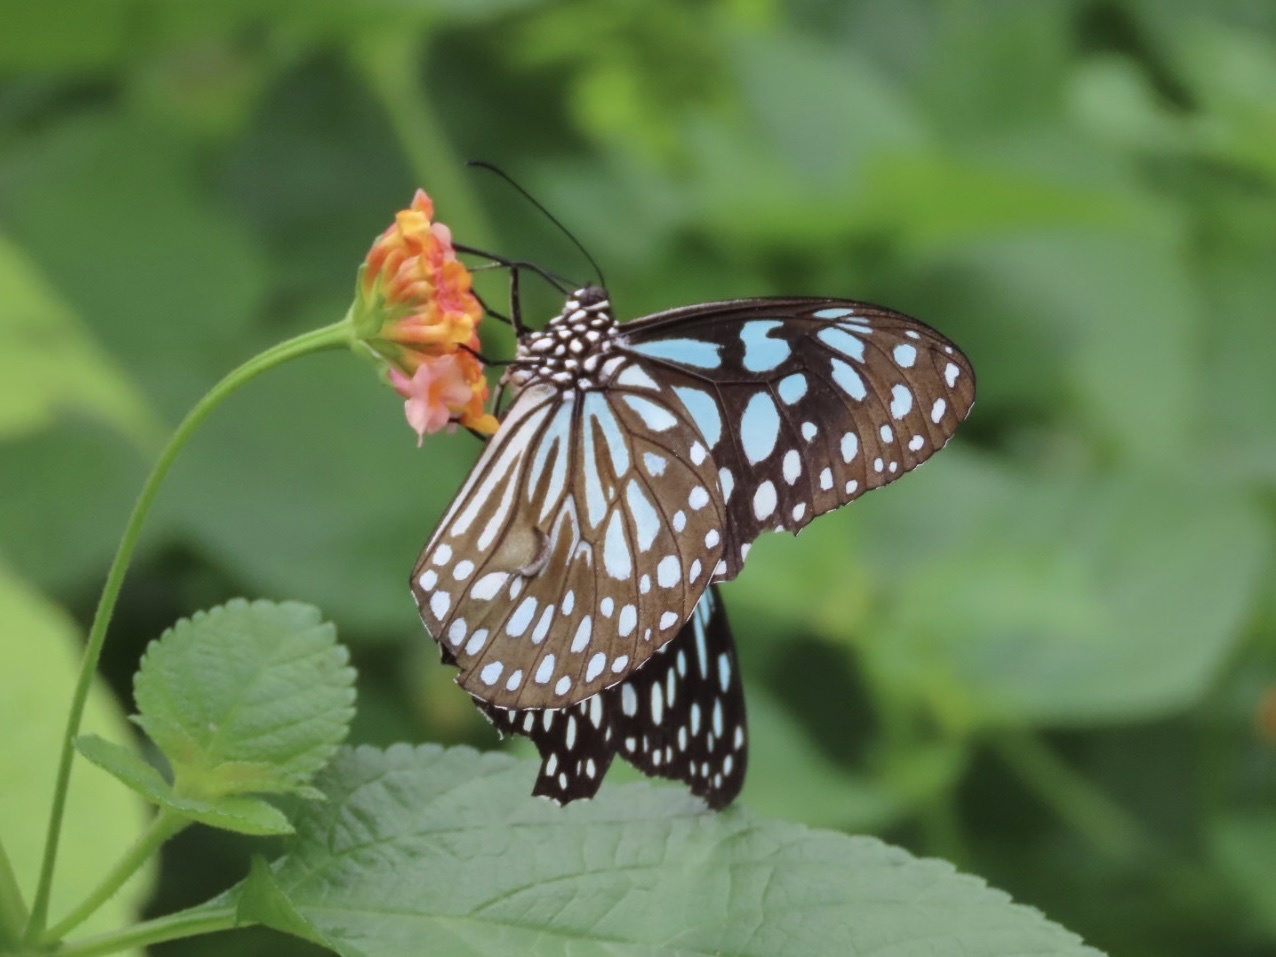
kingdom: Animalia
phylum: Arthropoda
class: Insecta
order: Lepidoptera
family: Nymphalidae
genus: Tirumala
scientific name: Tirumala limniace
